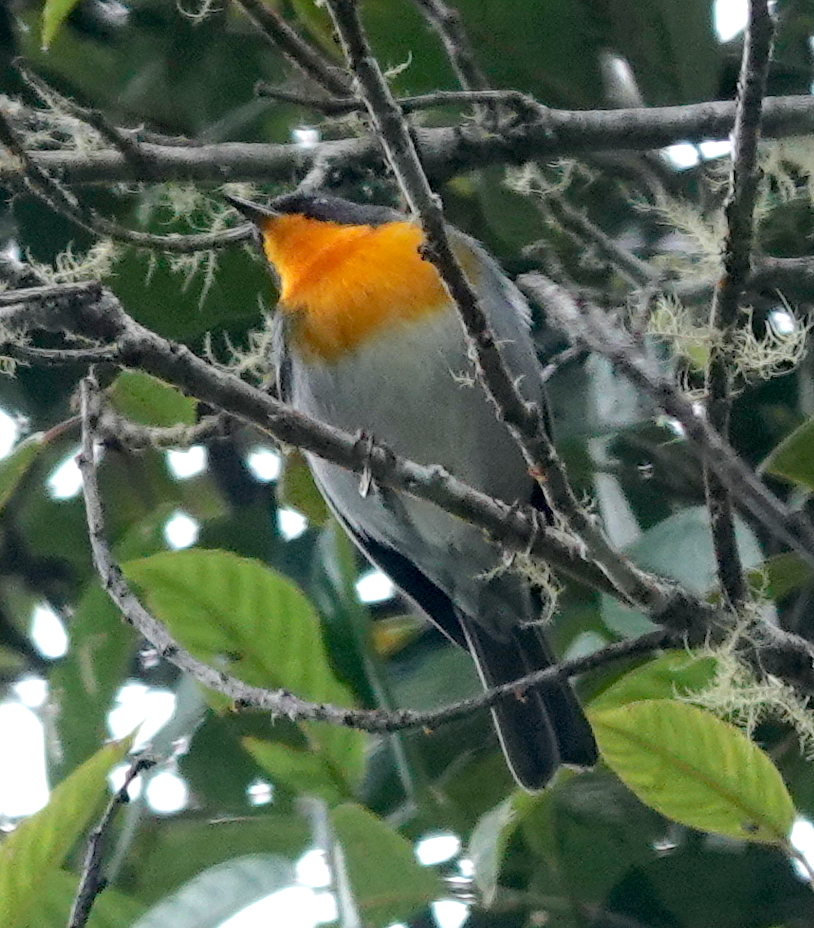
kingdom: Animalia
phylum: Chordata
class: Aves
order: Passeriformes
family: Parulidae
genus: Oreothlypis
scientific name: Oreothlypis gutturalis
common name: Flame-throated warbler
